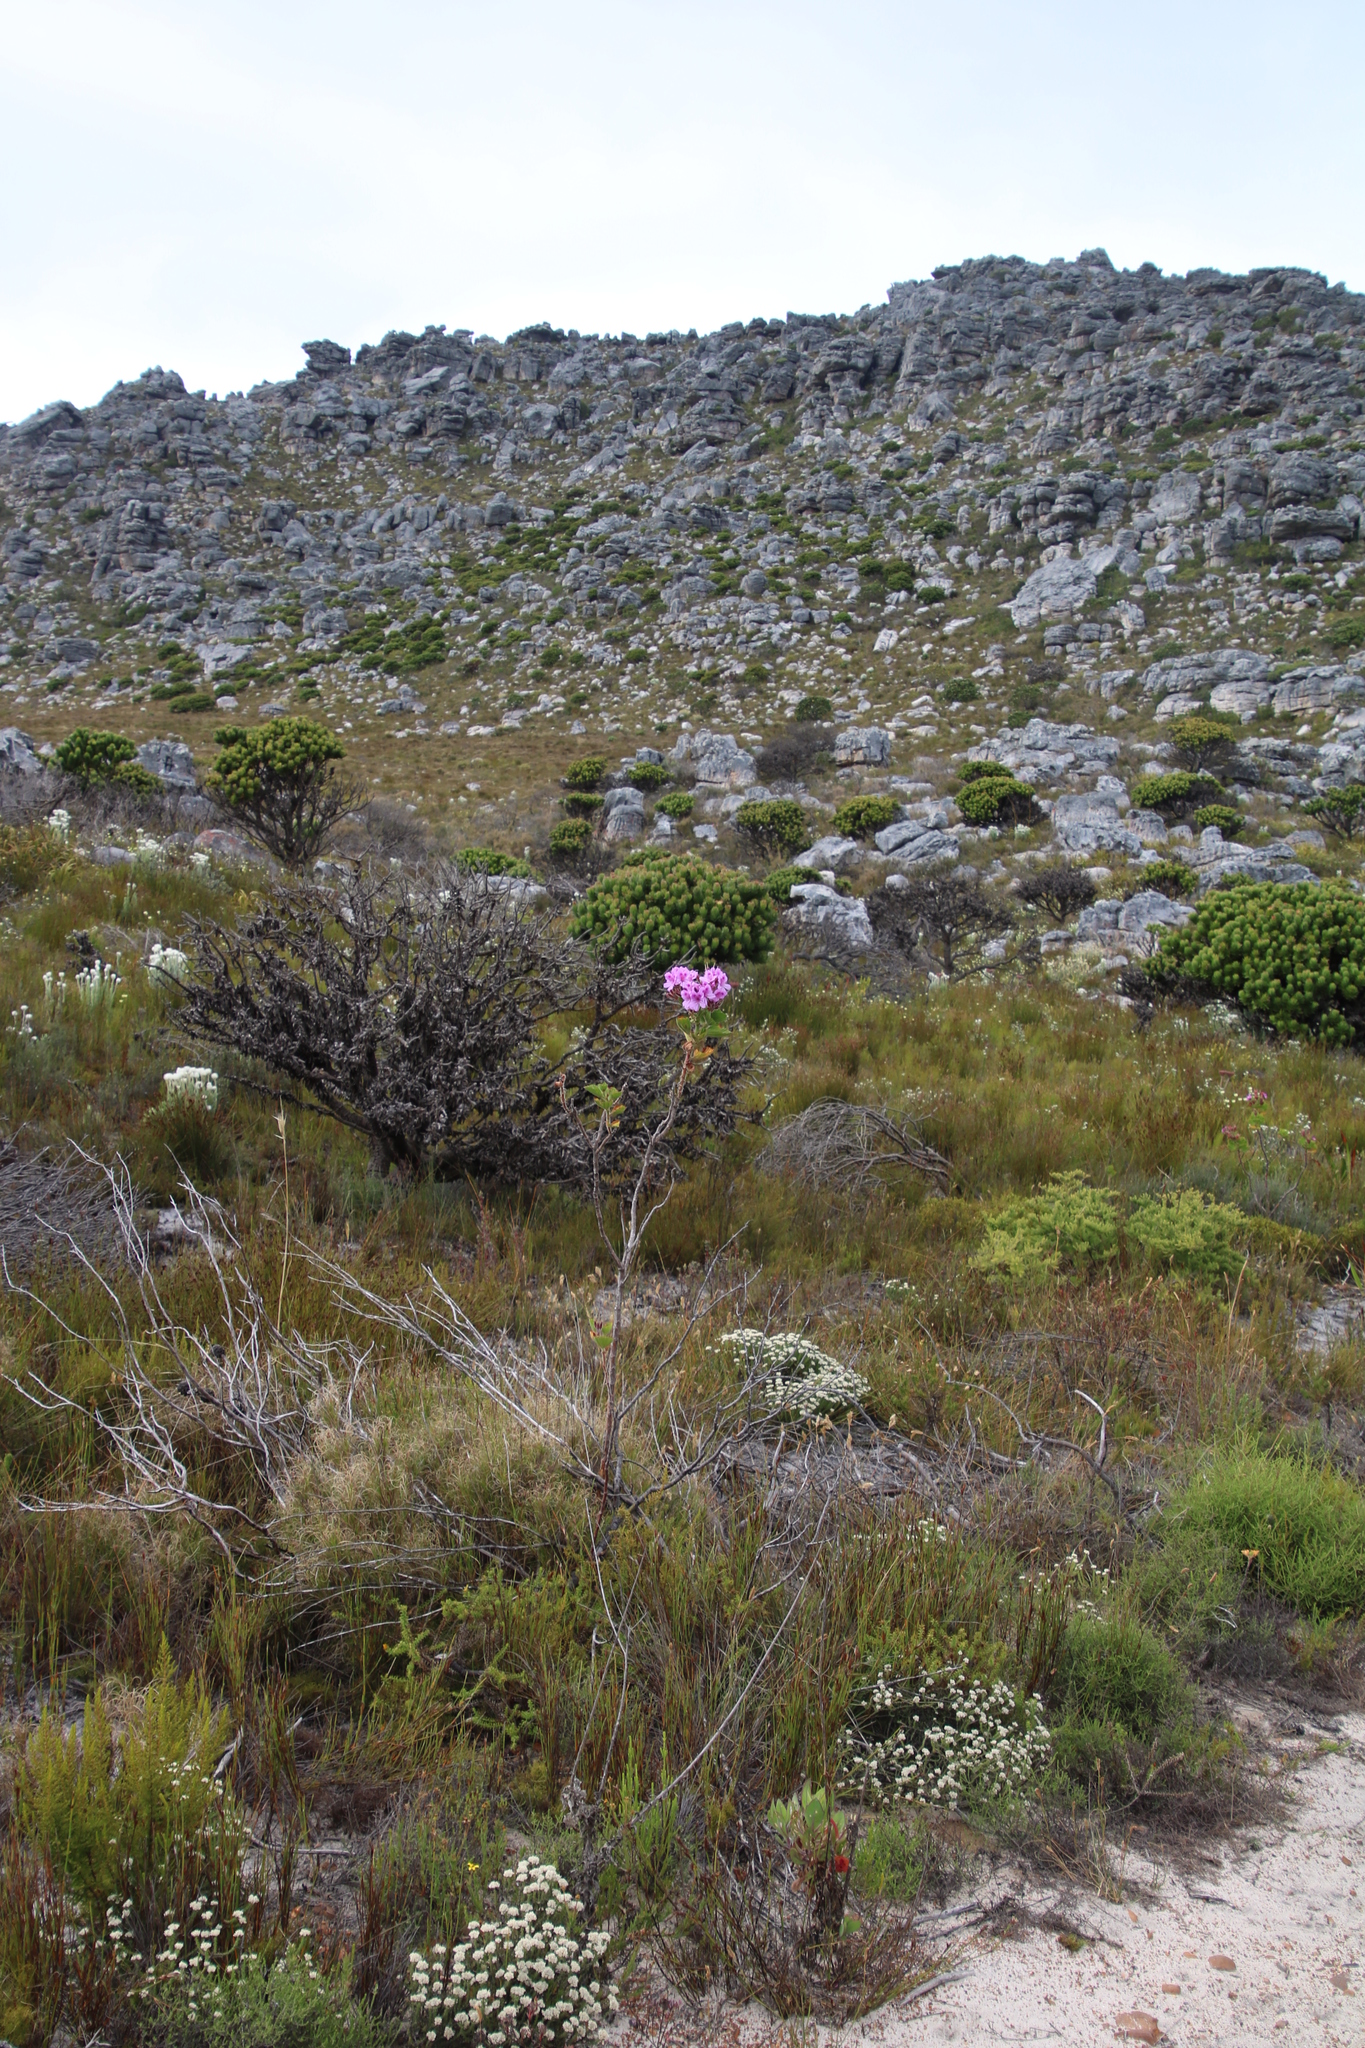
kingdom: Plantae
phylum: Tracheophyta
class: Magnoliopsida
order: Geraniales
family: Geraniaceae
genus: Pelargonium
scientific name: Pelargonium cucullatum
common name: Tree pelargonium
